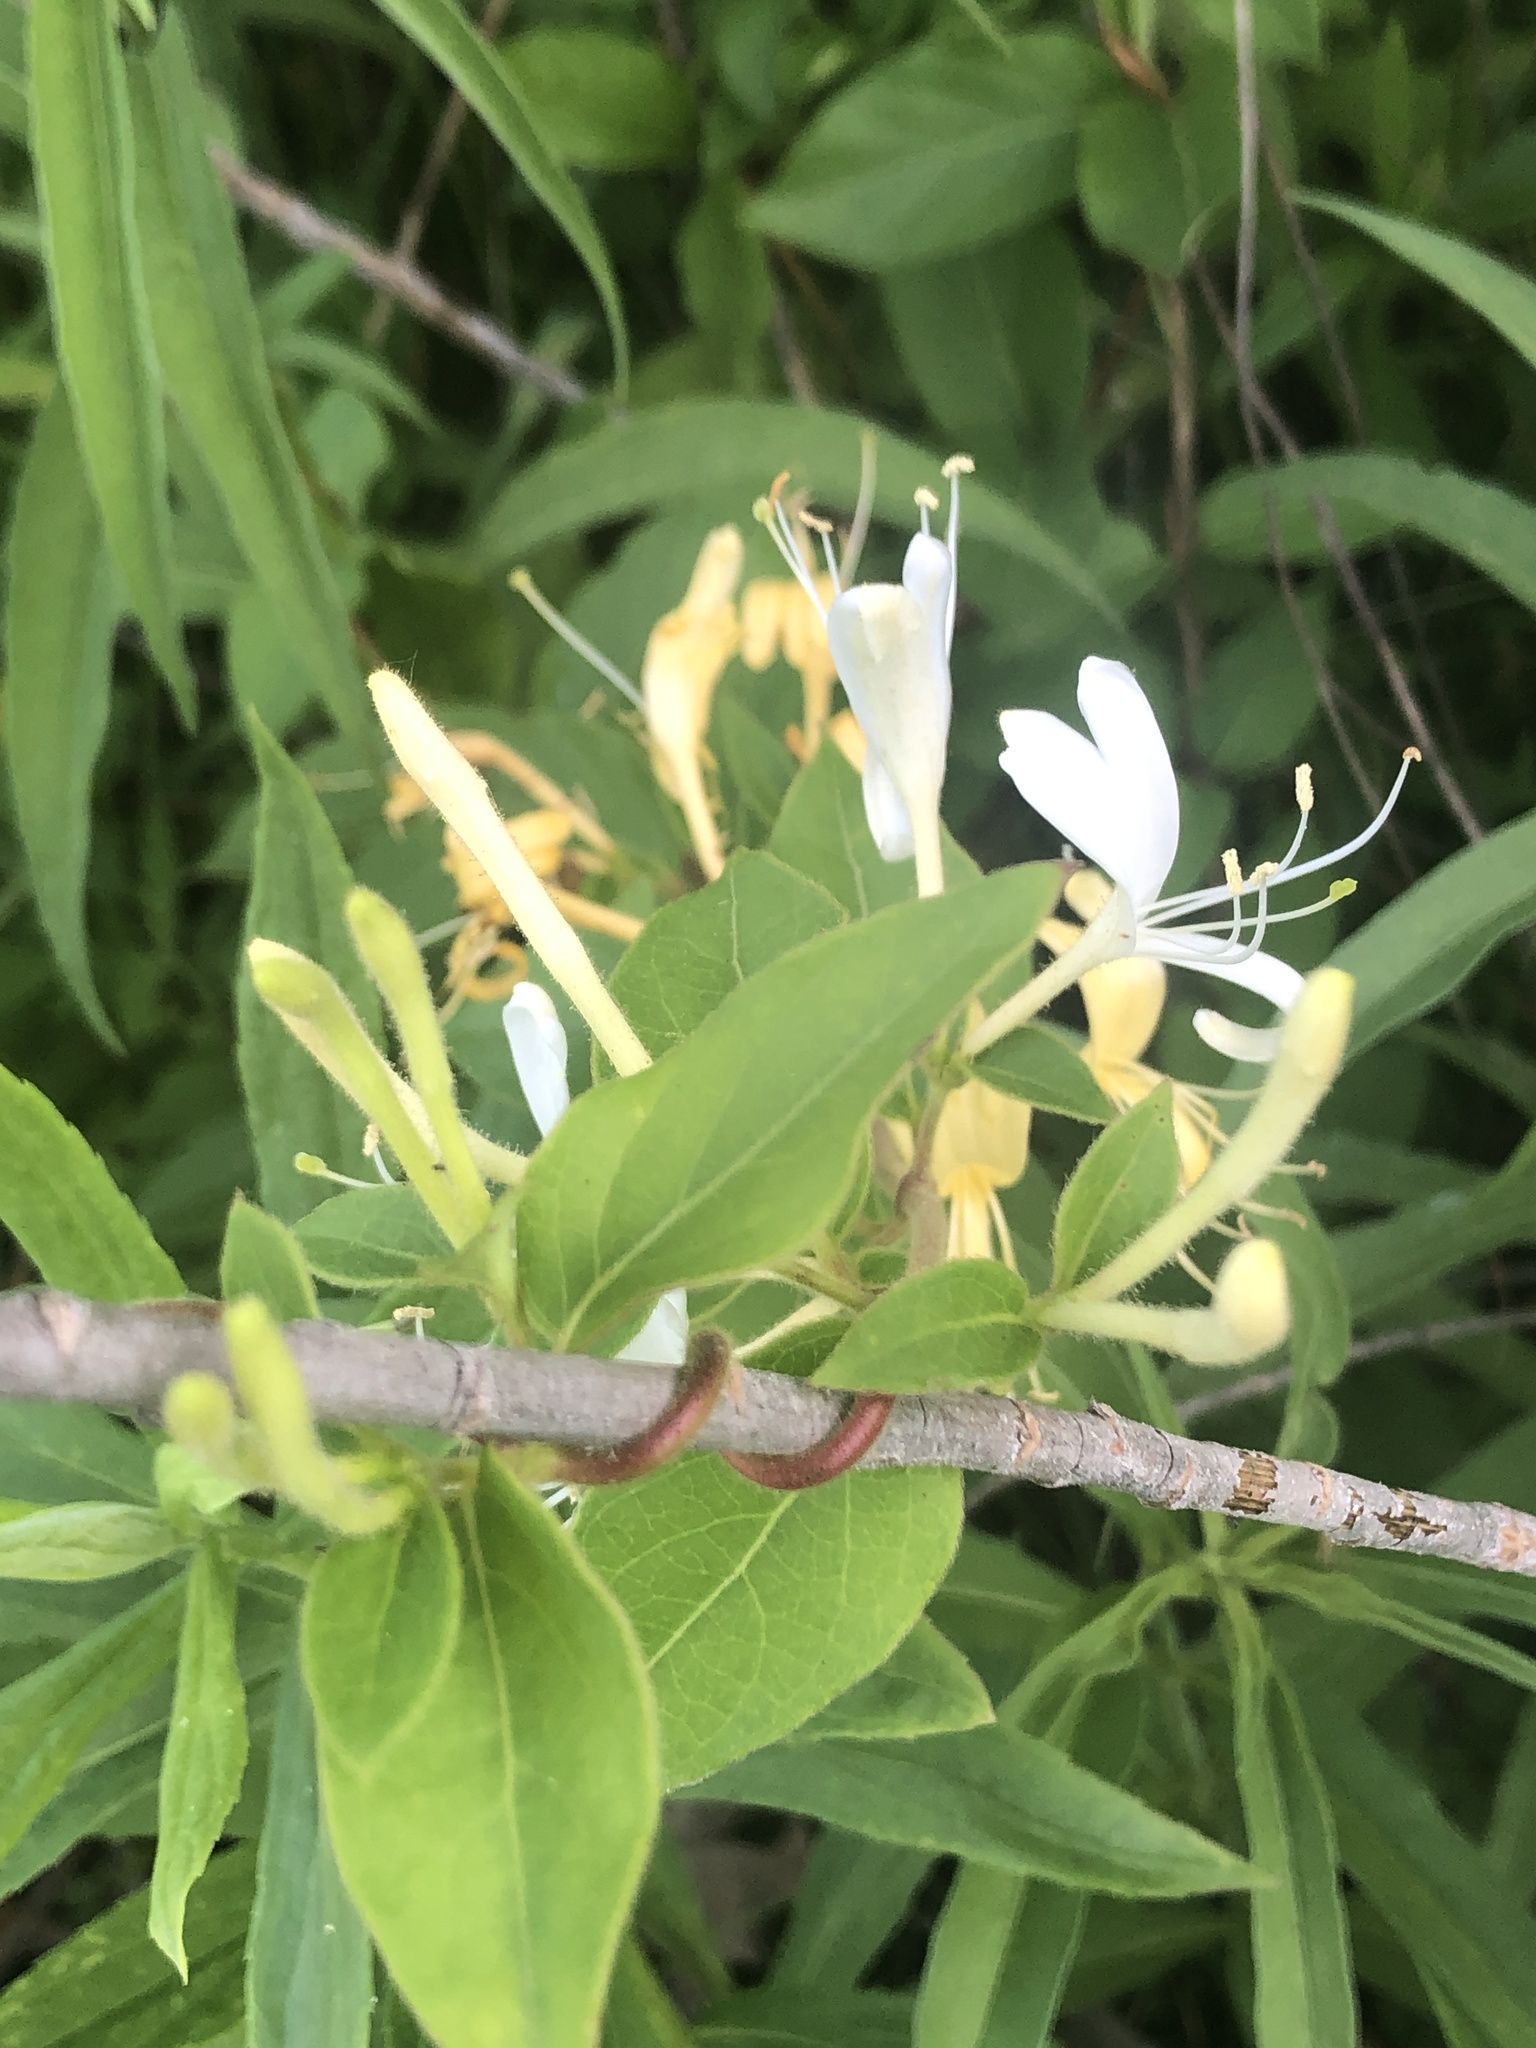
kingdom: Plantae
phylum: Tracheophyta
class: Magnoliopsida
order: Dipsacales
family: Caprifoliaceae
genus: Lonicera
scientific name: Lonicera japonica
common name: Japanese honeysuckle
